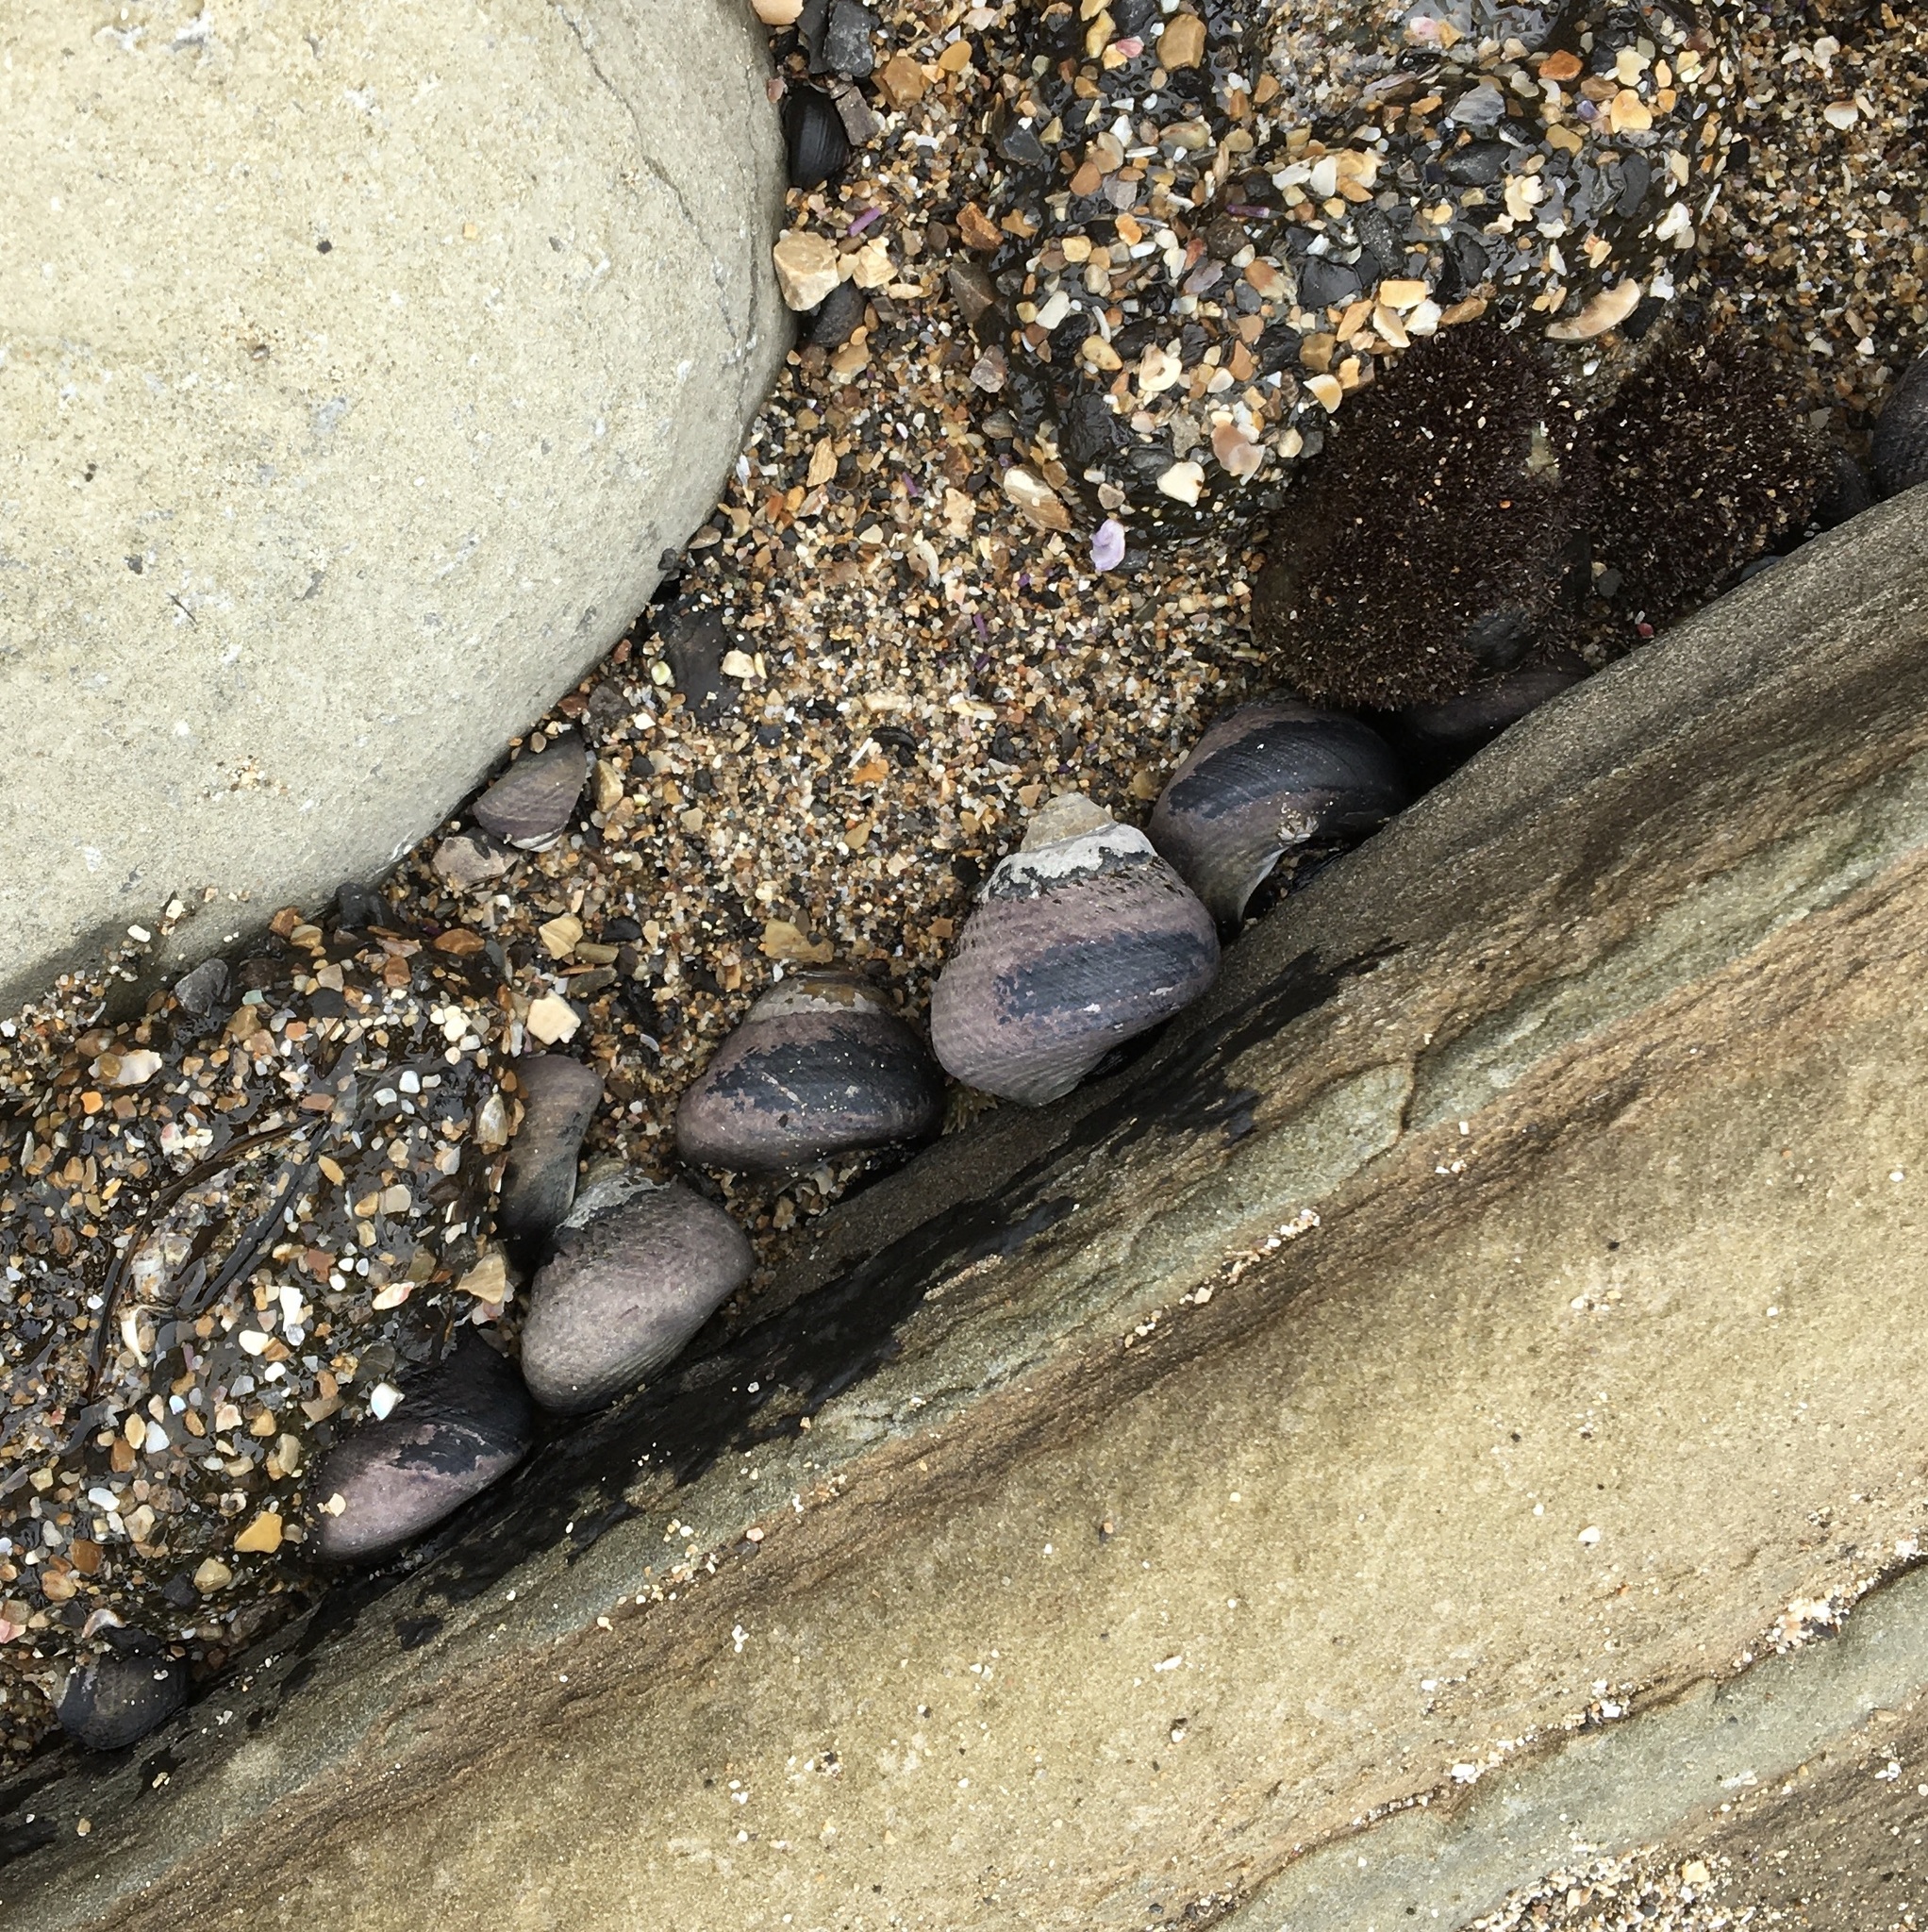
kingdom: Animalia
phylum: Mollusca
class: Gastropoda
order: Trochida
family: Tegulidae
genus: Tegula
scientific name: Tegula funebralis
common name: Black tegula
